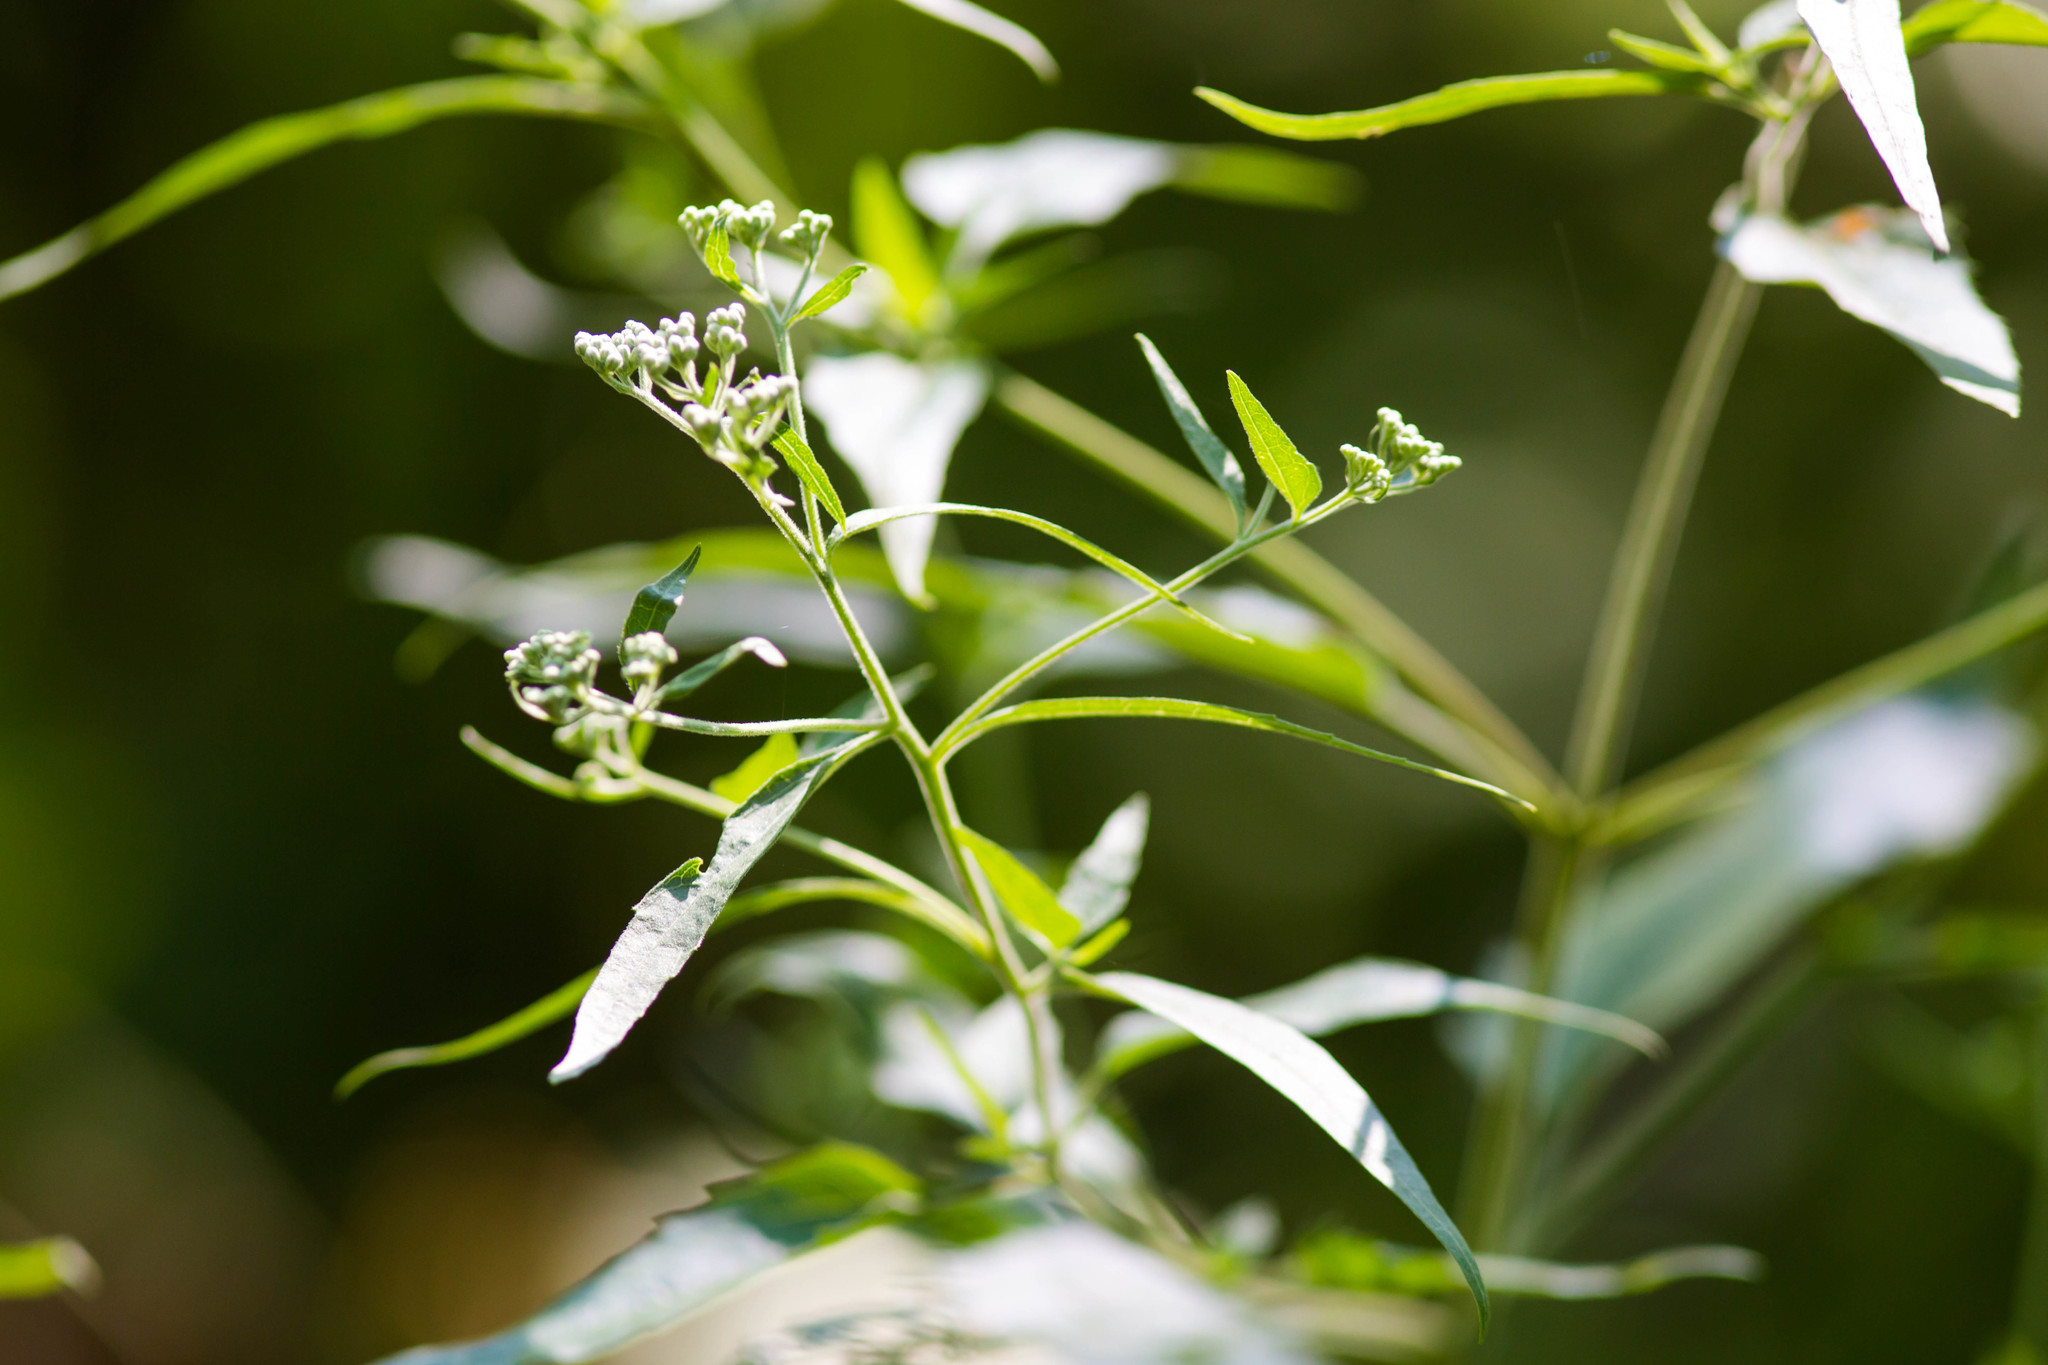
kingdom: Plantae
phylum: Tracheophyta
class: Magnoliopsida
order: Asterales
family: Asteraceae
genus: Eupatorium
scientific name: Eupatorium serotinum
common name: Late boneset
